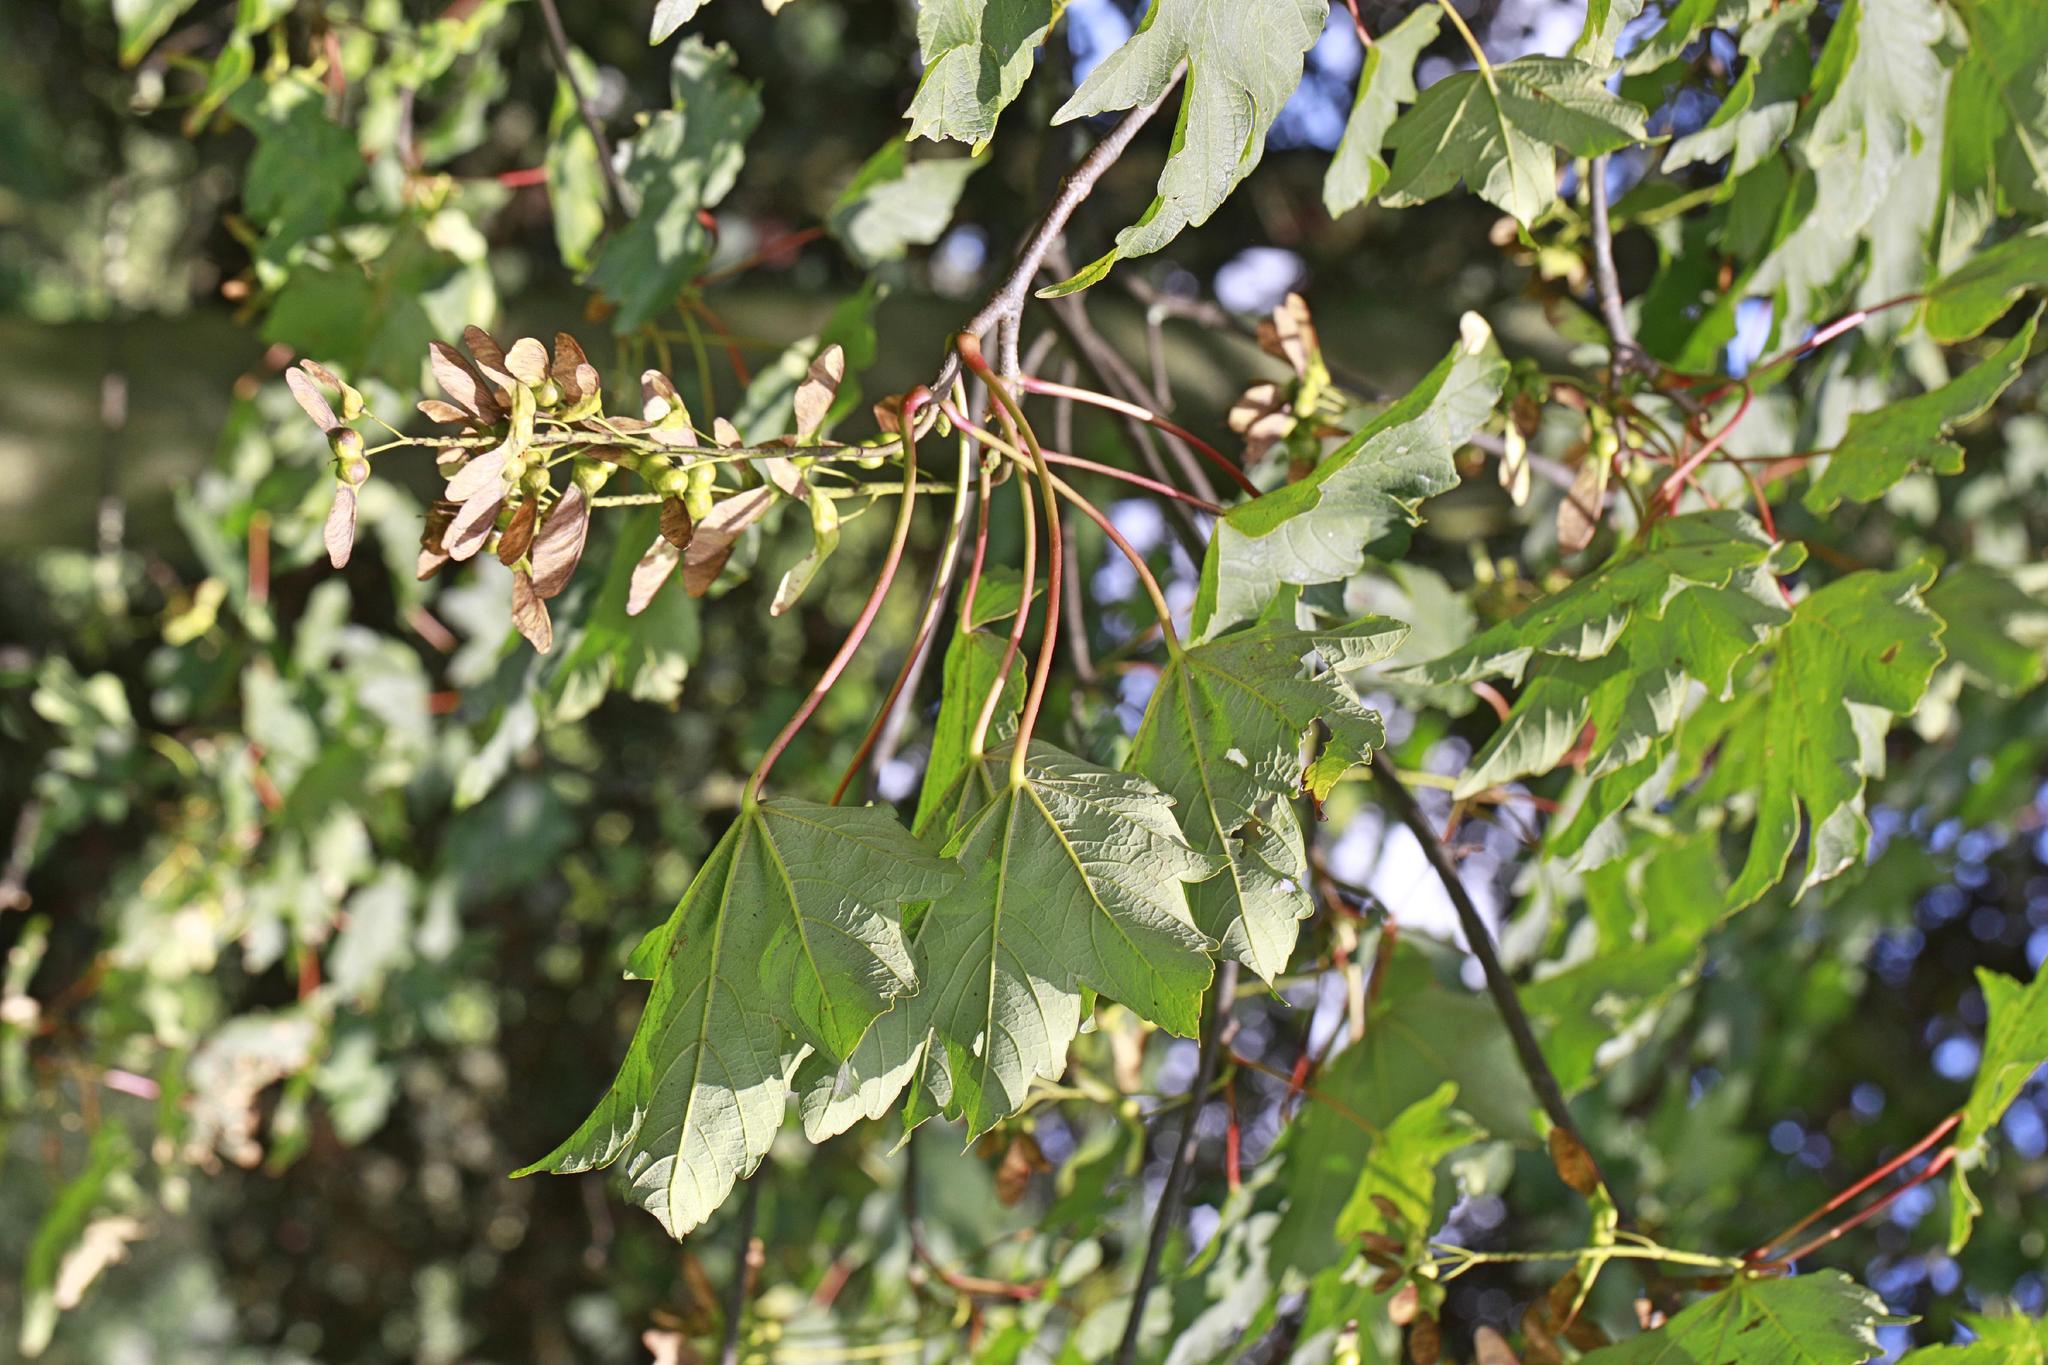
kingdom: Plantae
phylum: Tracheophyta
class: Magnoliopsida
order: Sapindales
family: Sapindaceae
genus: Acer
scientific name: Acer pseudoplatanus
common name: Sycamore
